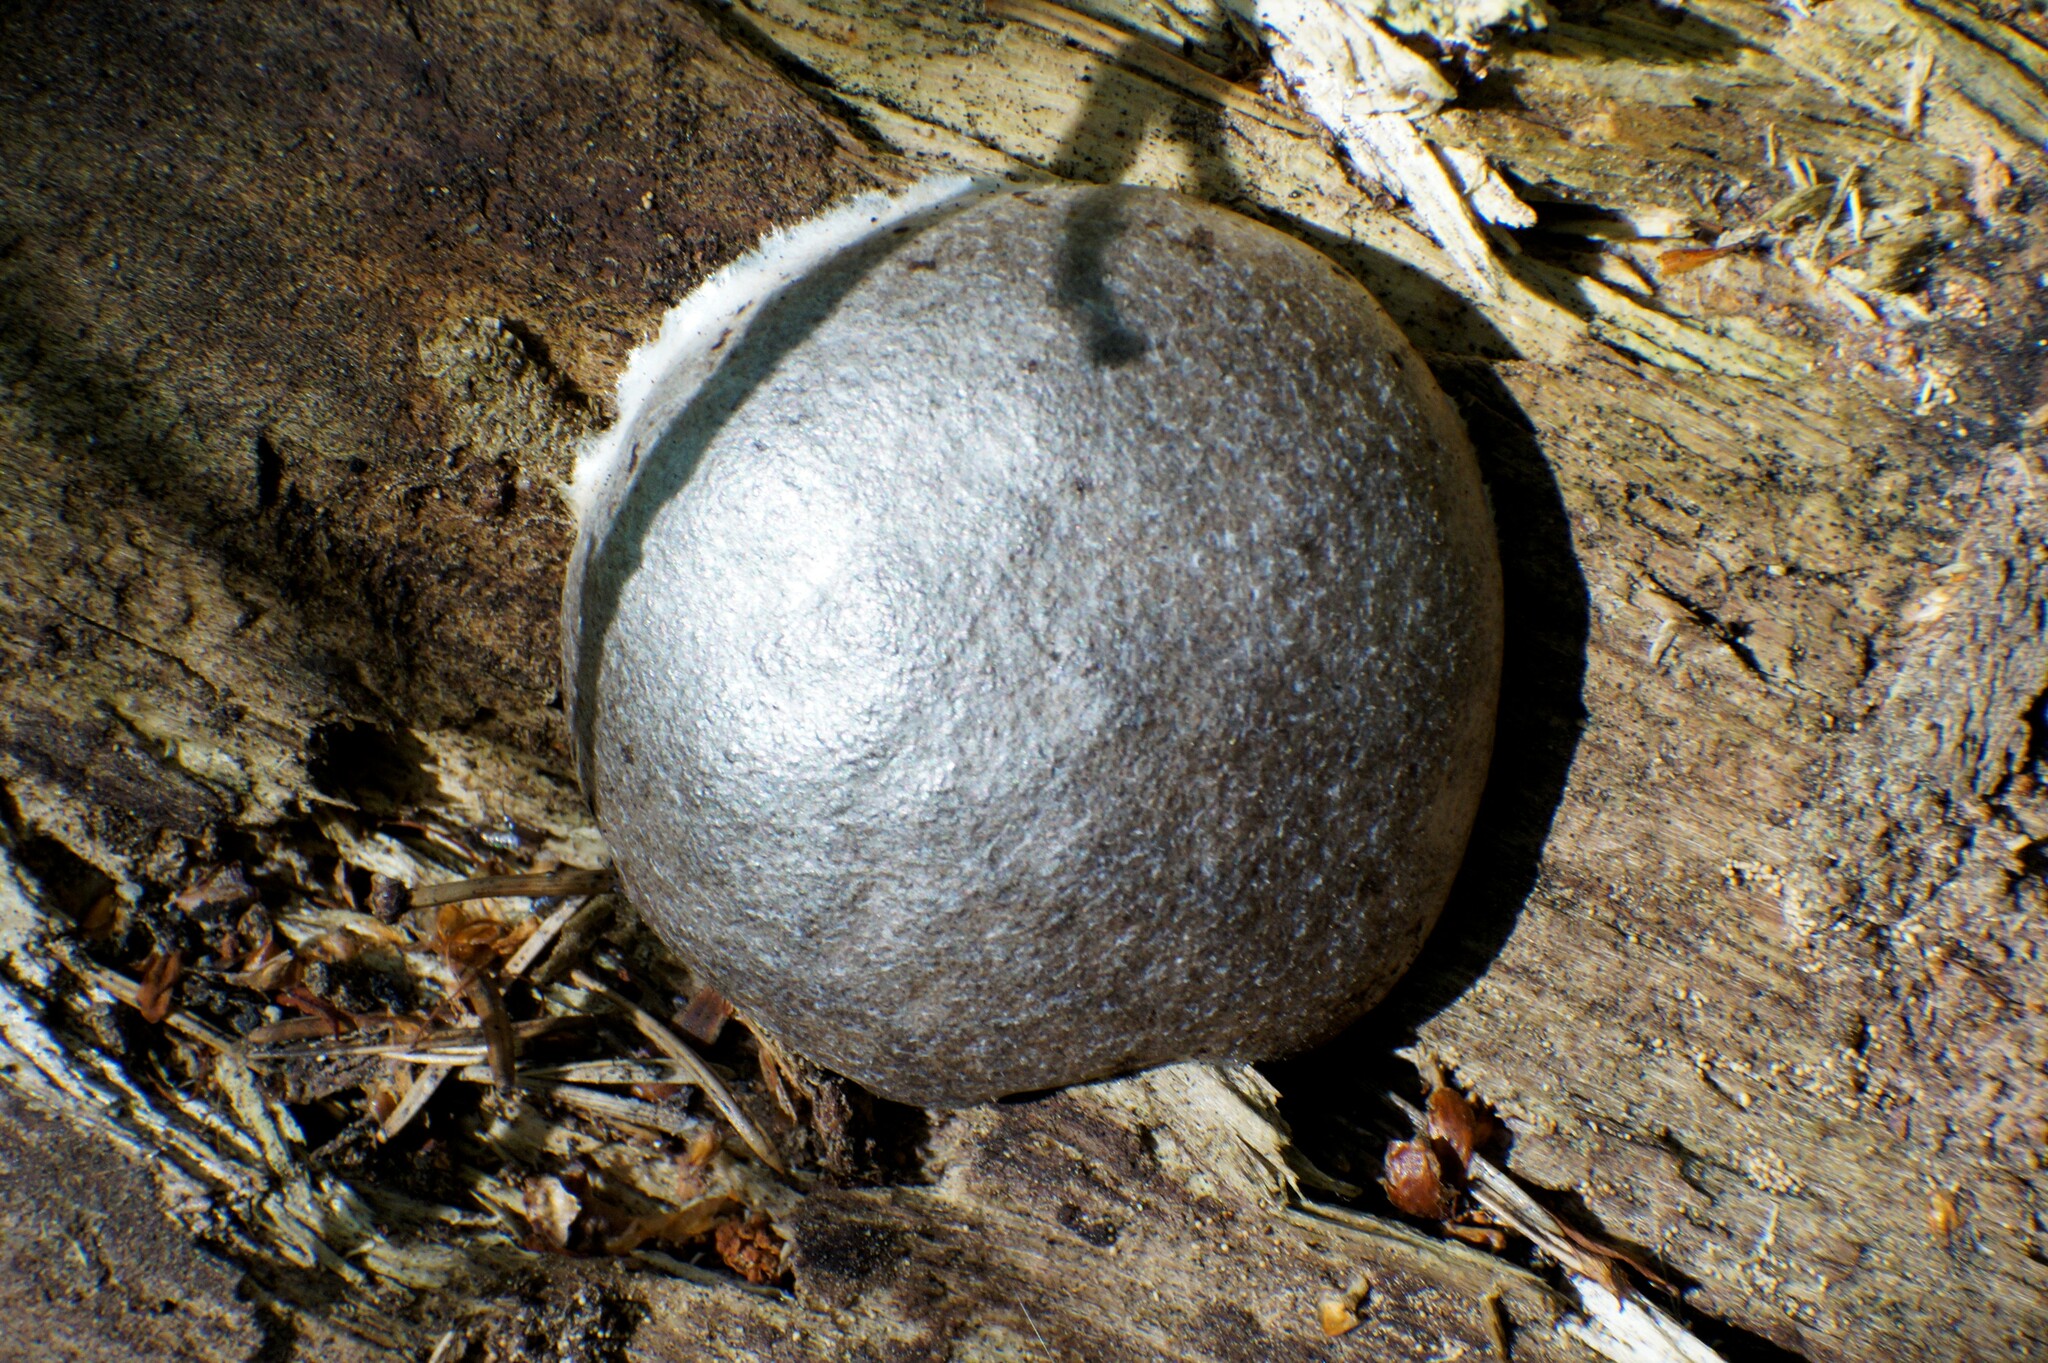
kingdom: Protozoa
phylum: Mycetozoa
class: Myxomycetes
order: Cribrariales
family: Tubiferaceae
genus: Reticularia
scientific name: Reticularia lycoperdon
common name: False puffball
